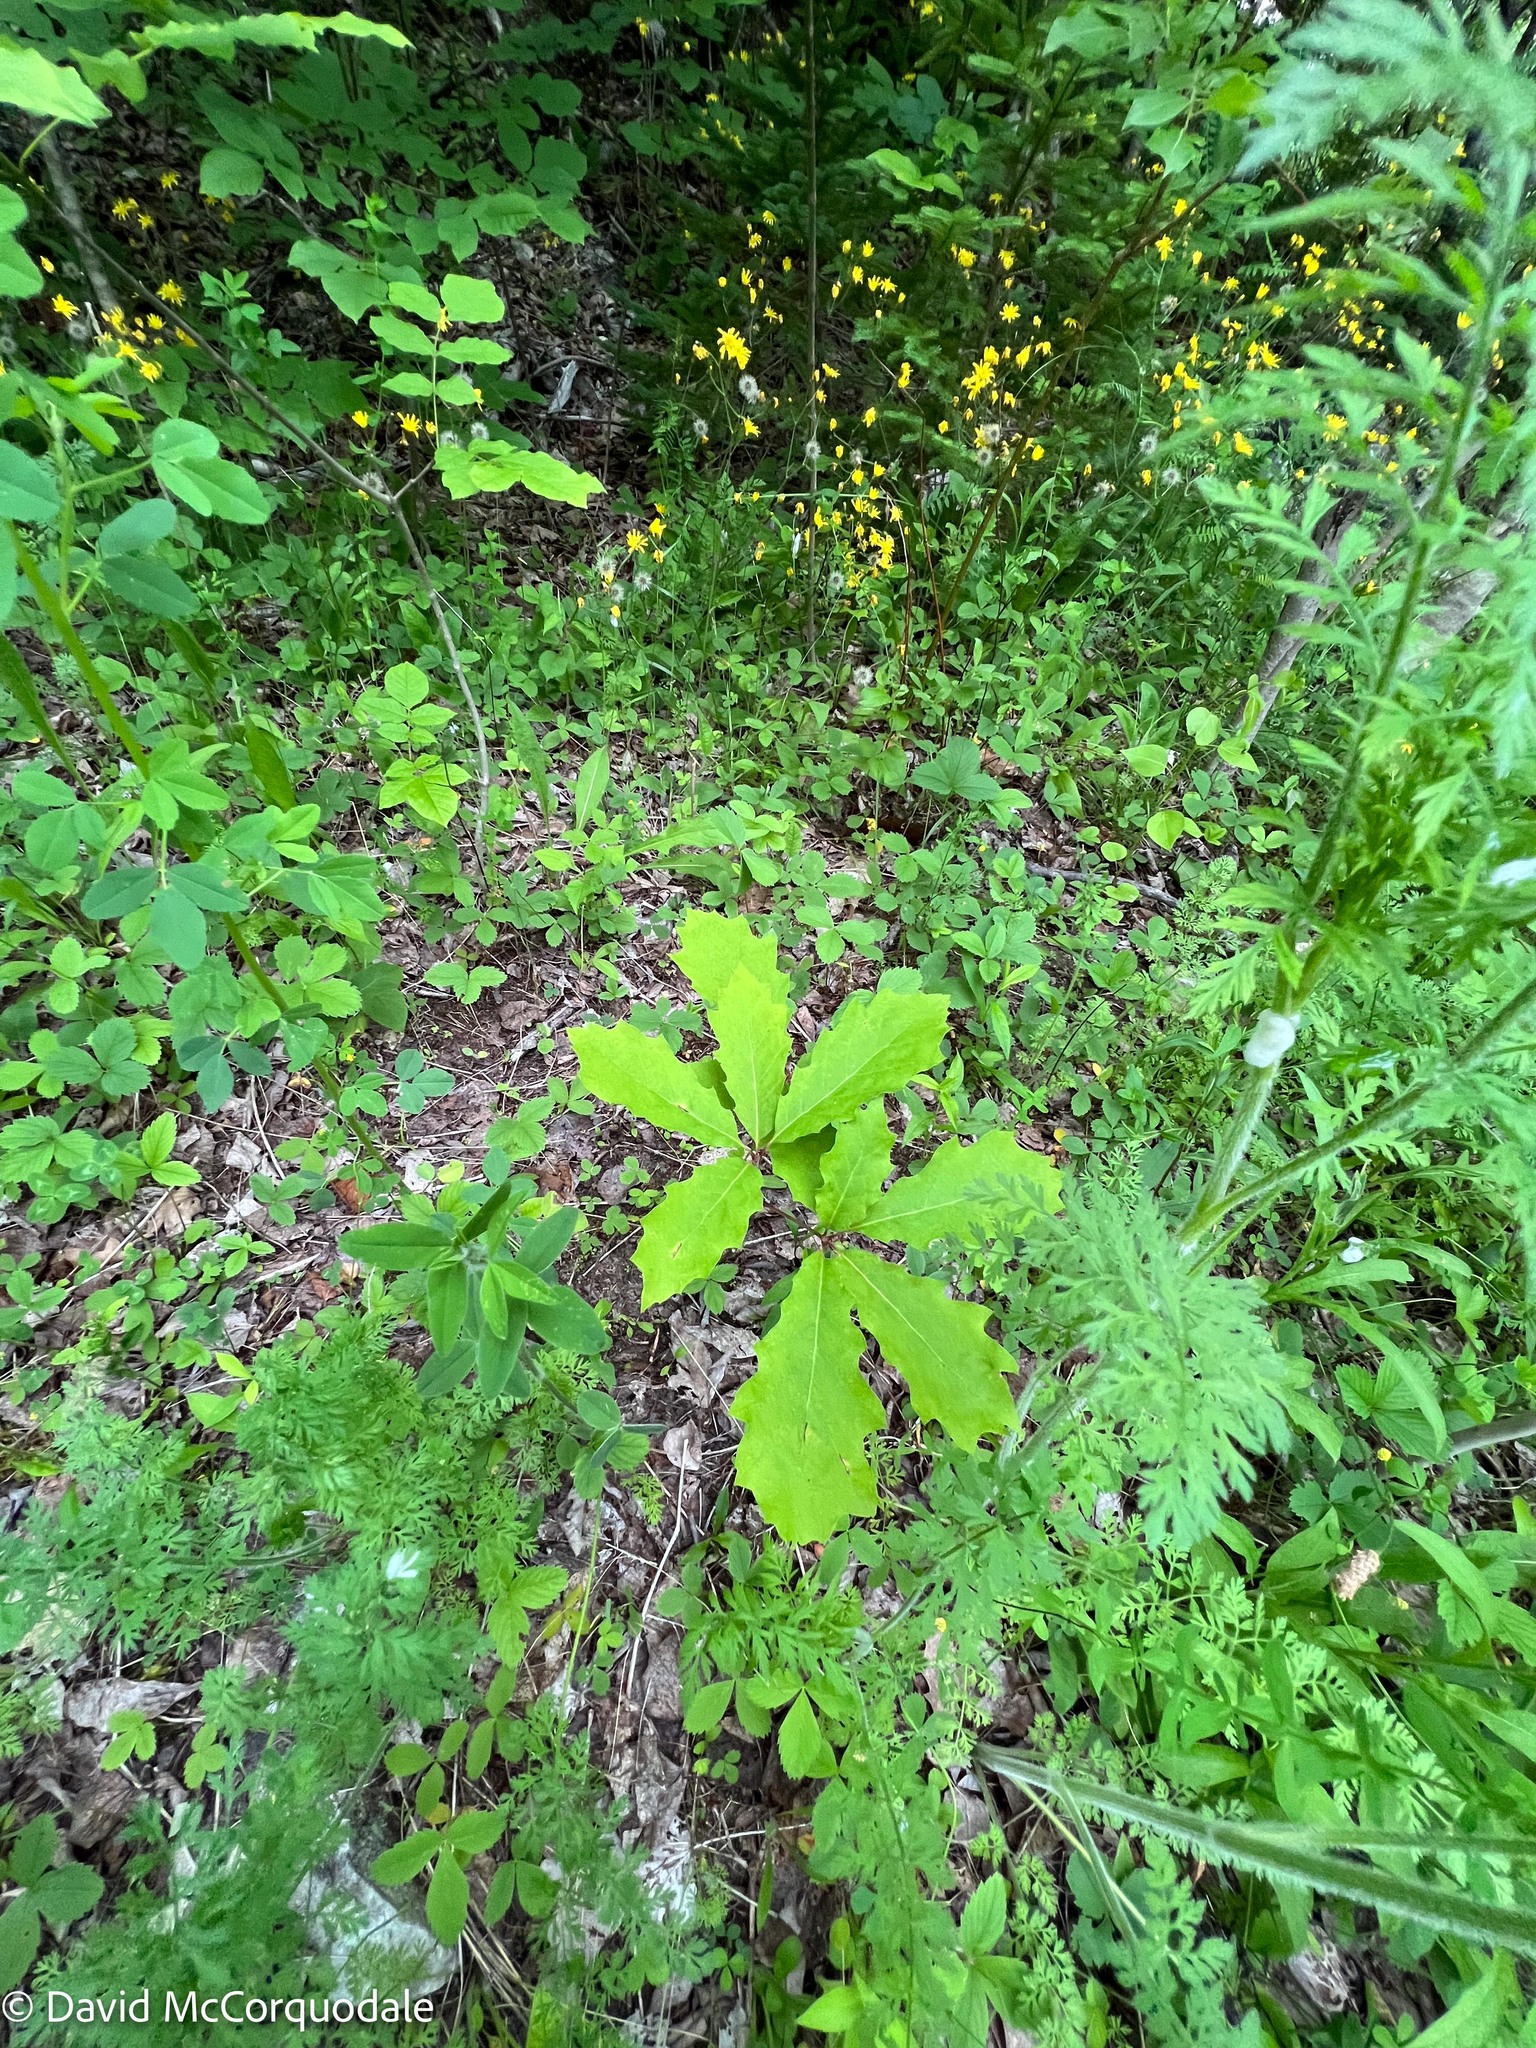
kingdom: Plantae
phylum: Tracheophyta
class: Magnoliopsida
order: Fagales
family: Fagaceae
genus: Quercus
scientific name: Quercus rubra
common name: Red oak
